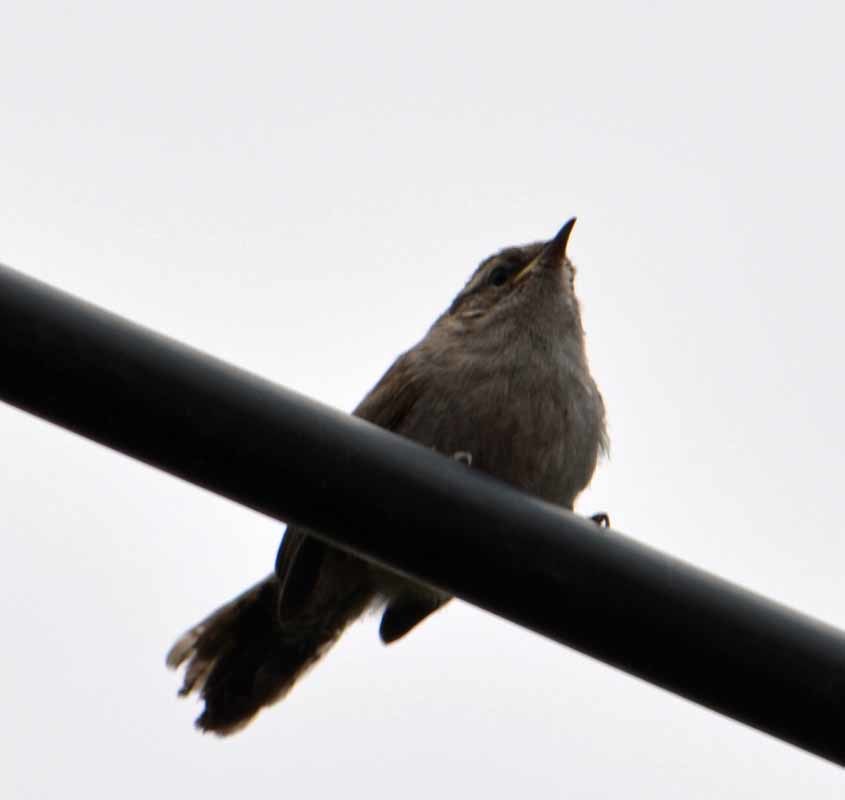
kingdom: Animalia
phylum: Chordata
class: Aves
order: Passeriformes
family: Troglodytidae
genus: Thryomanes
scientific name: Thryomanes bewickii
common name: Bewick's wren
